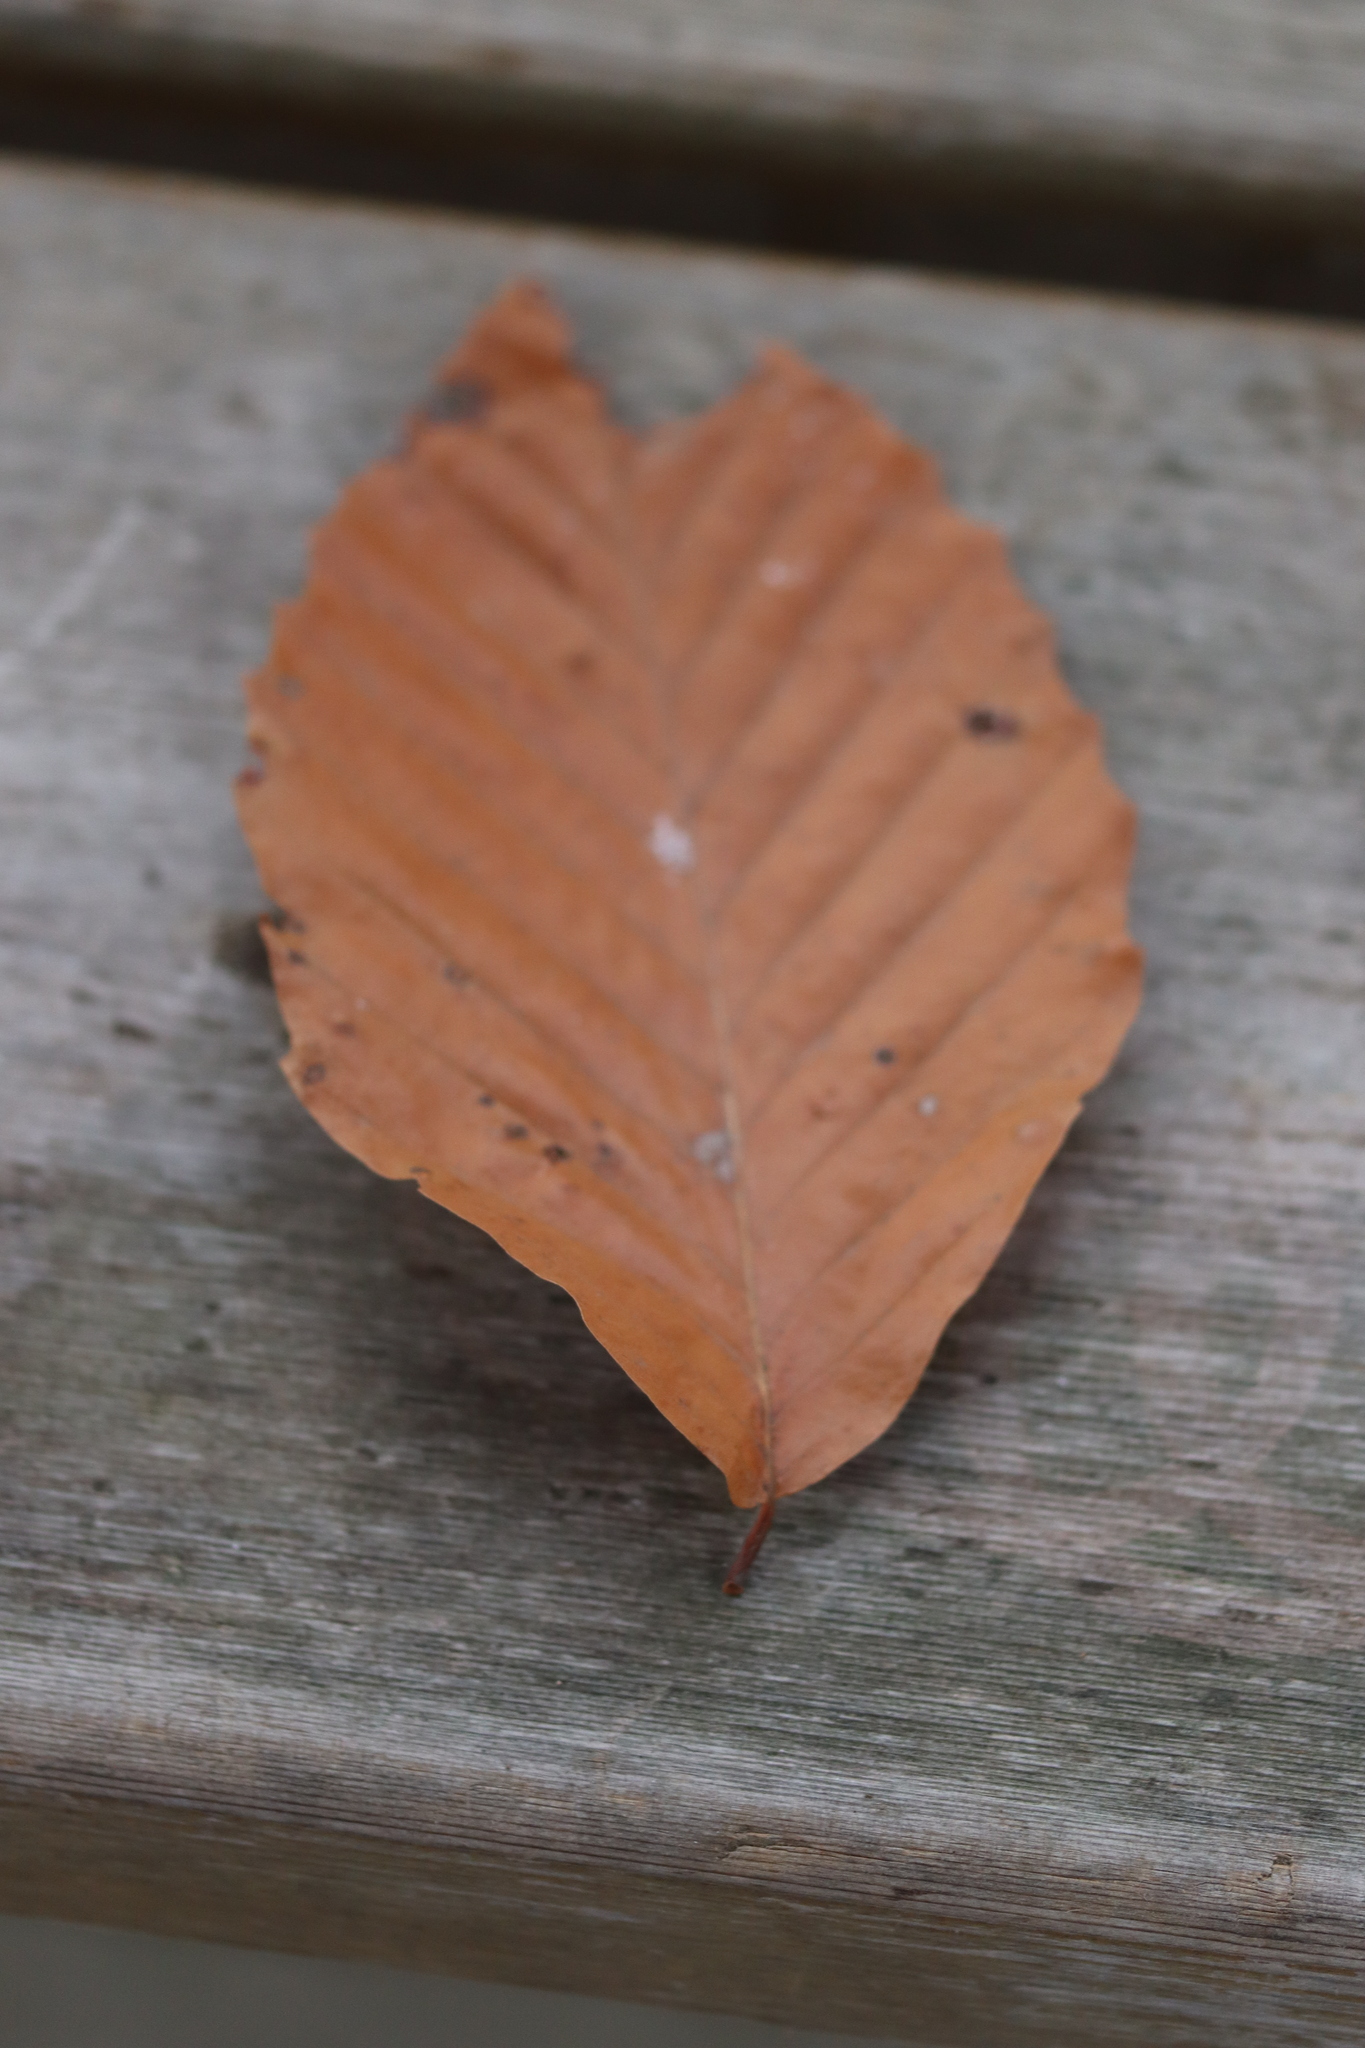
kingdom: Plantae
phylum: Tracheophyta
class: Magnoliopsida
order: Fagales
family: Fagaceae
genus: Fagus
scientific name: Fagus grandifolia
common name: American beech
